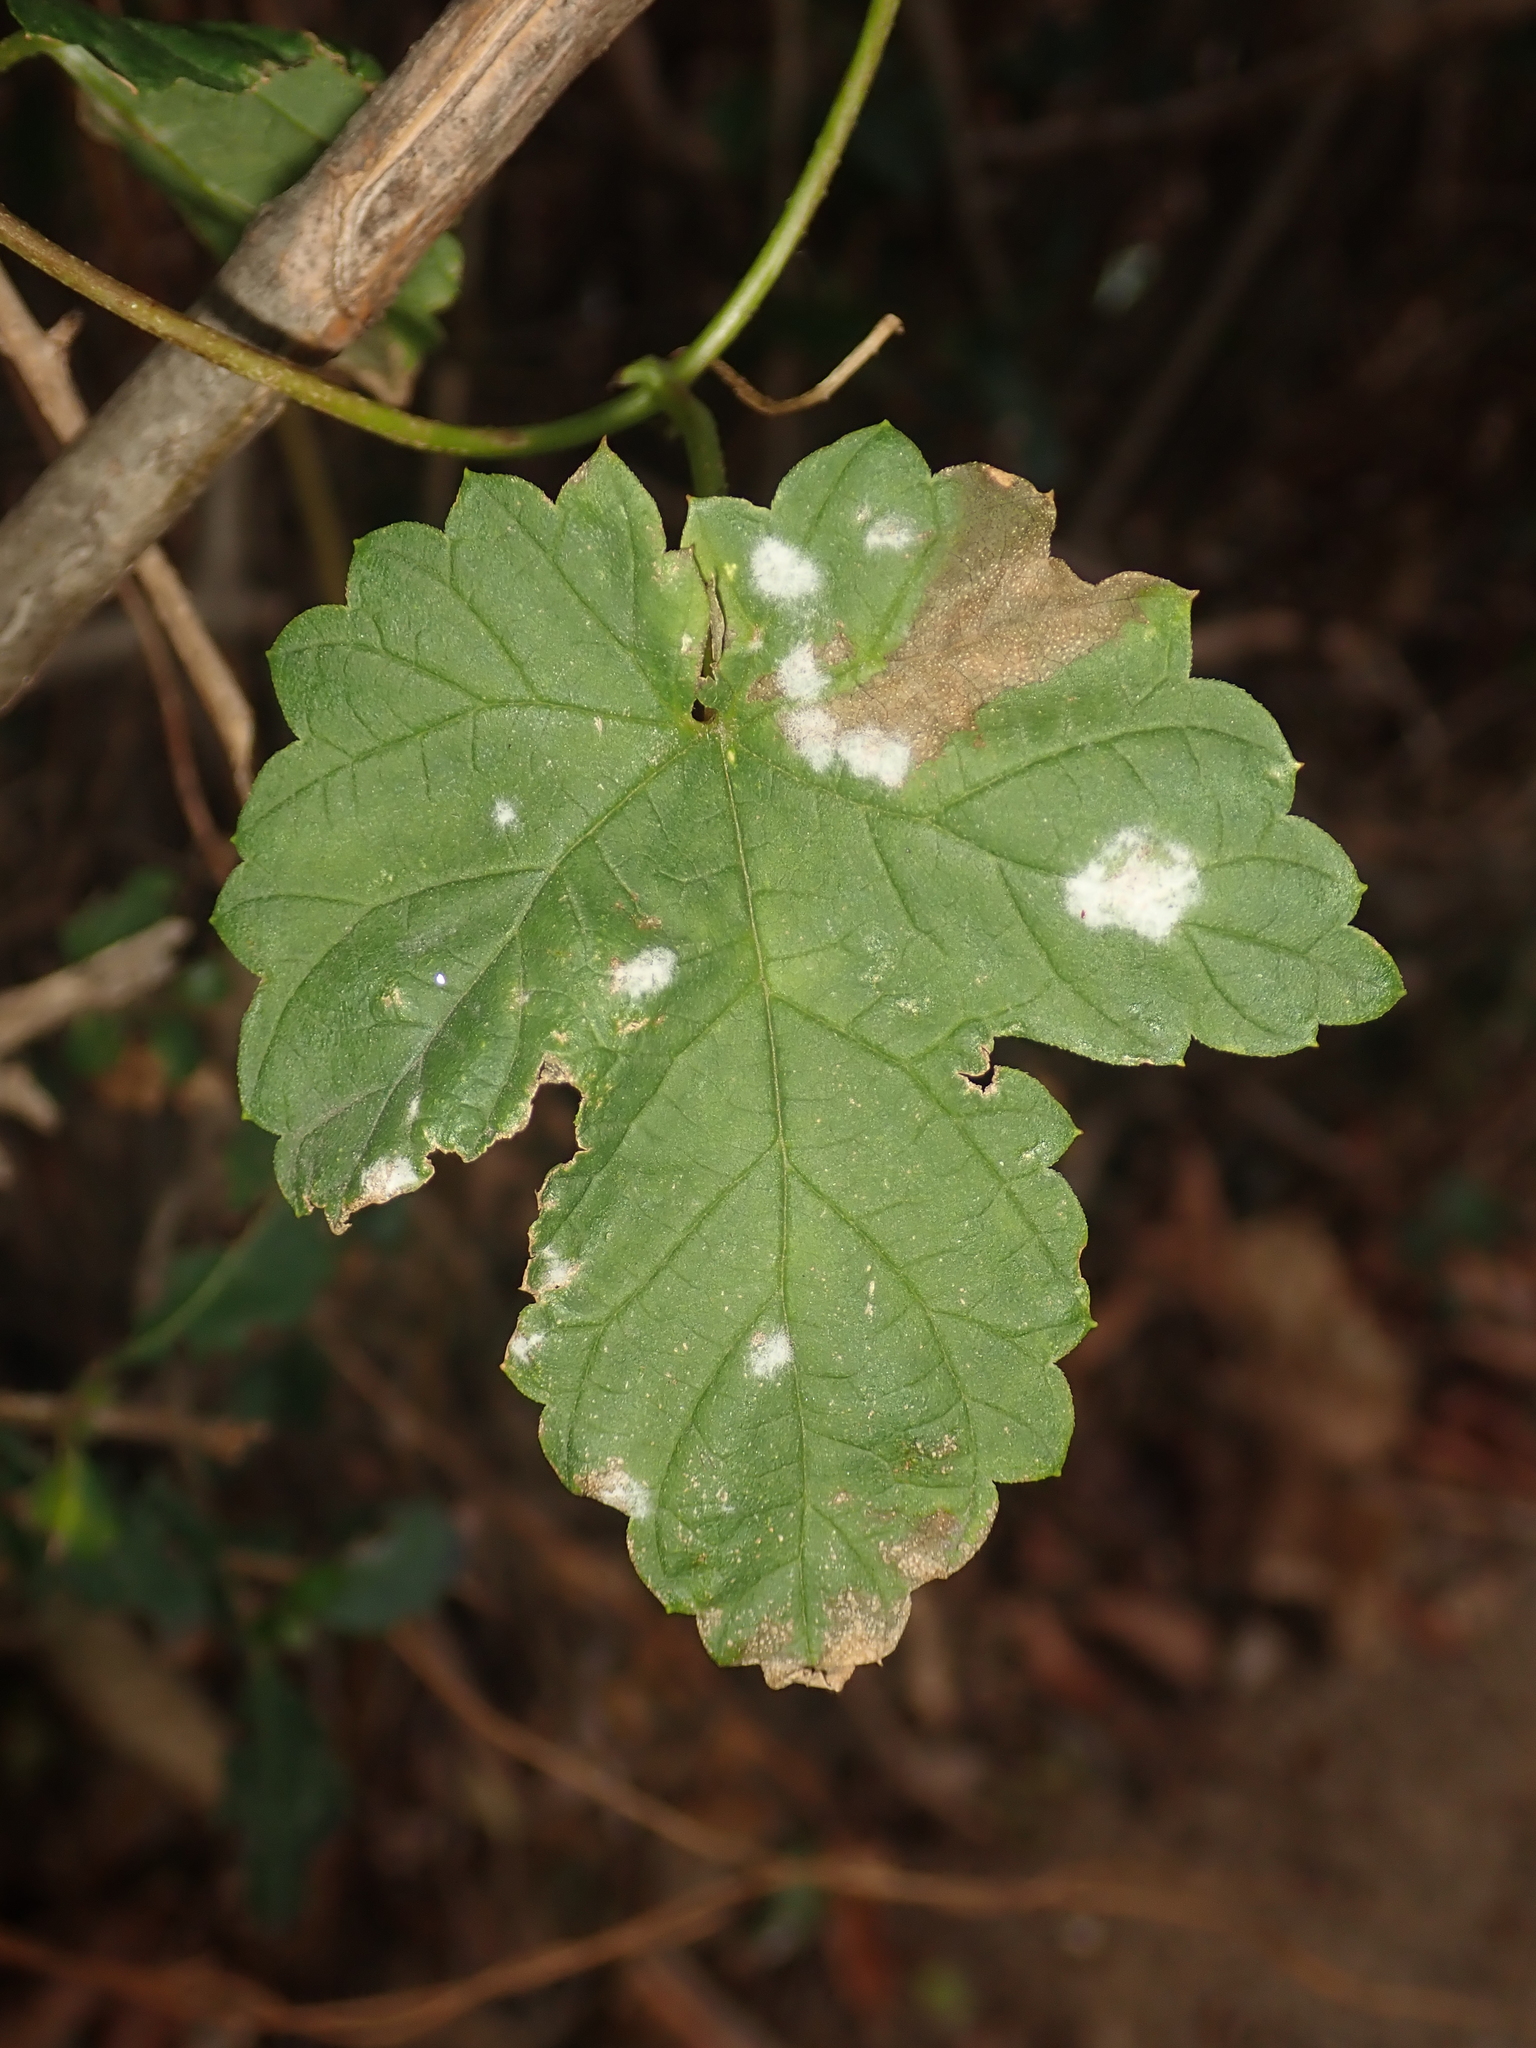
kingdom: Plantae
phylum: Tracheophyta
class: Magnoliopsida
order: Rosales
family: Cannabaceae
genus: Humulus
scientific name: Humulus lupulus
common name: Hop
